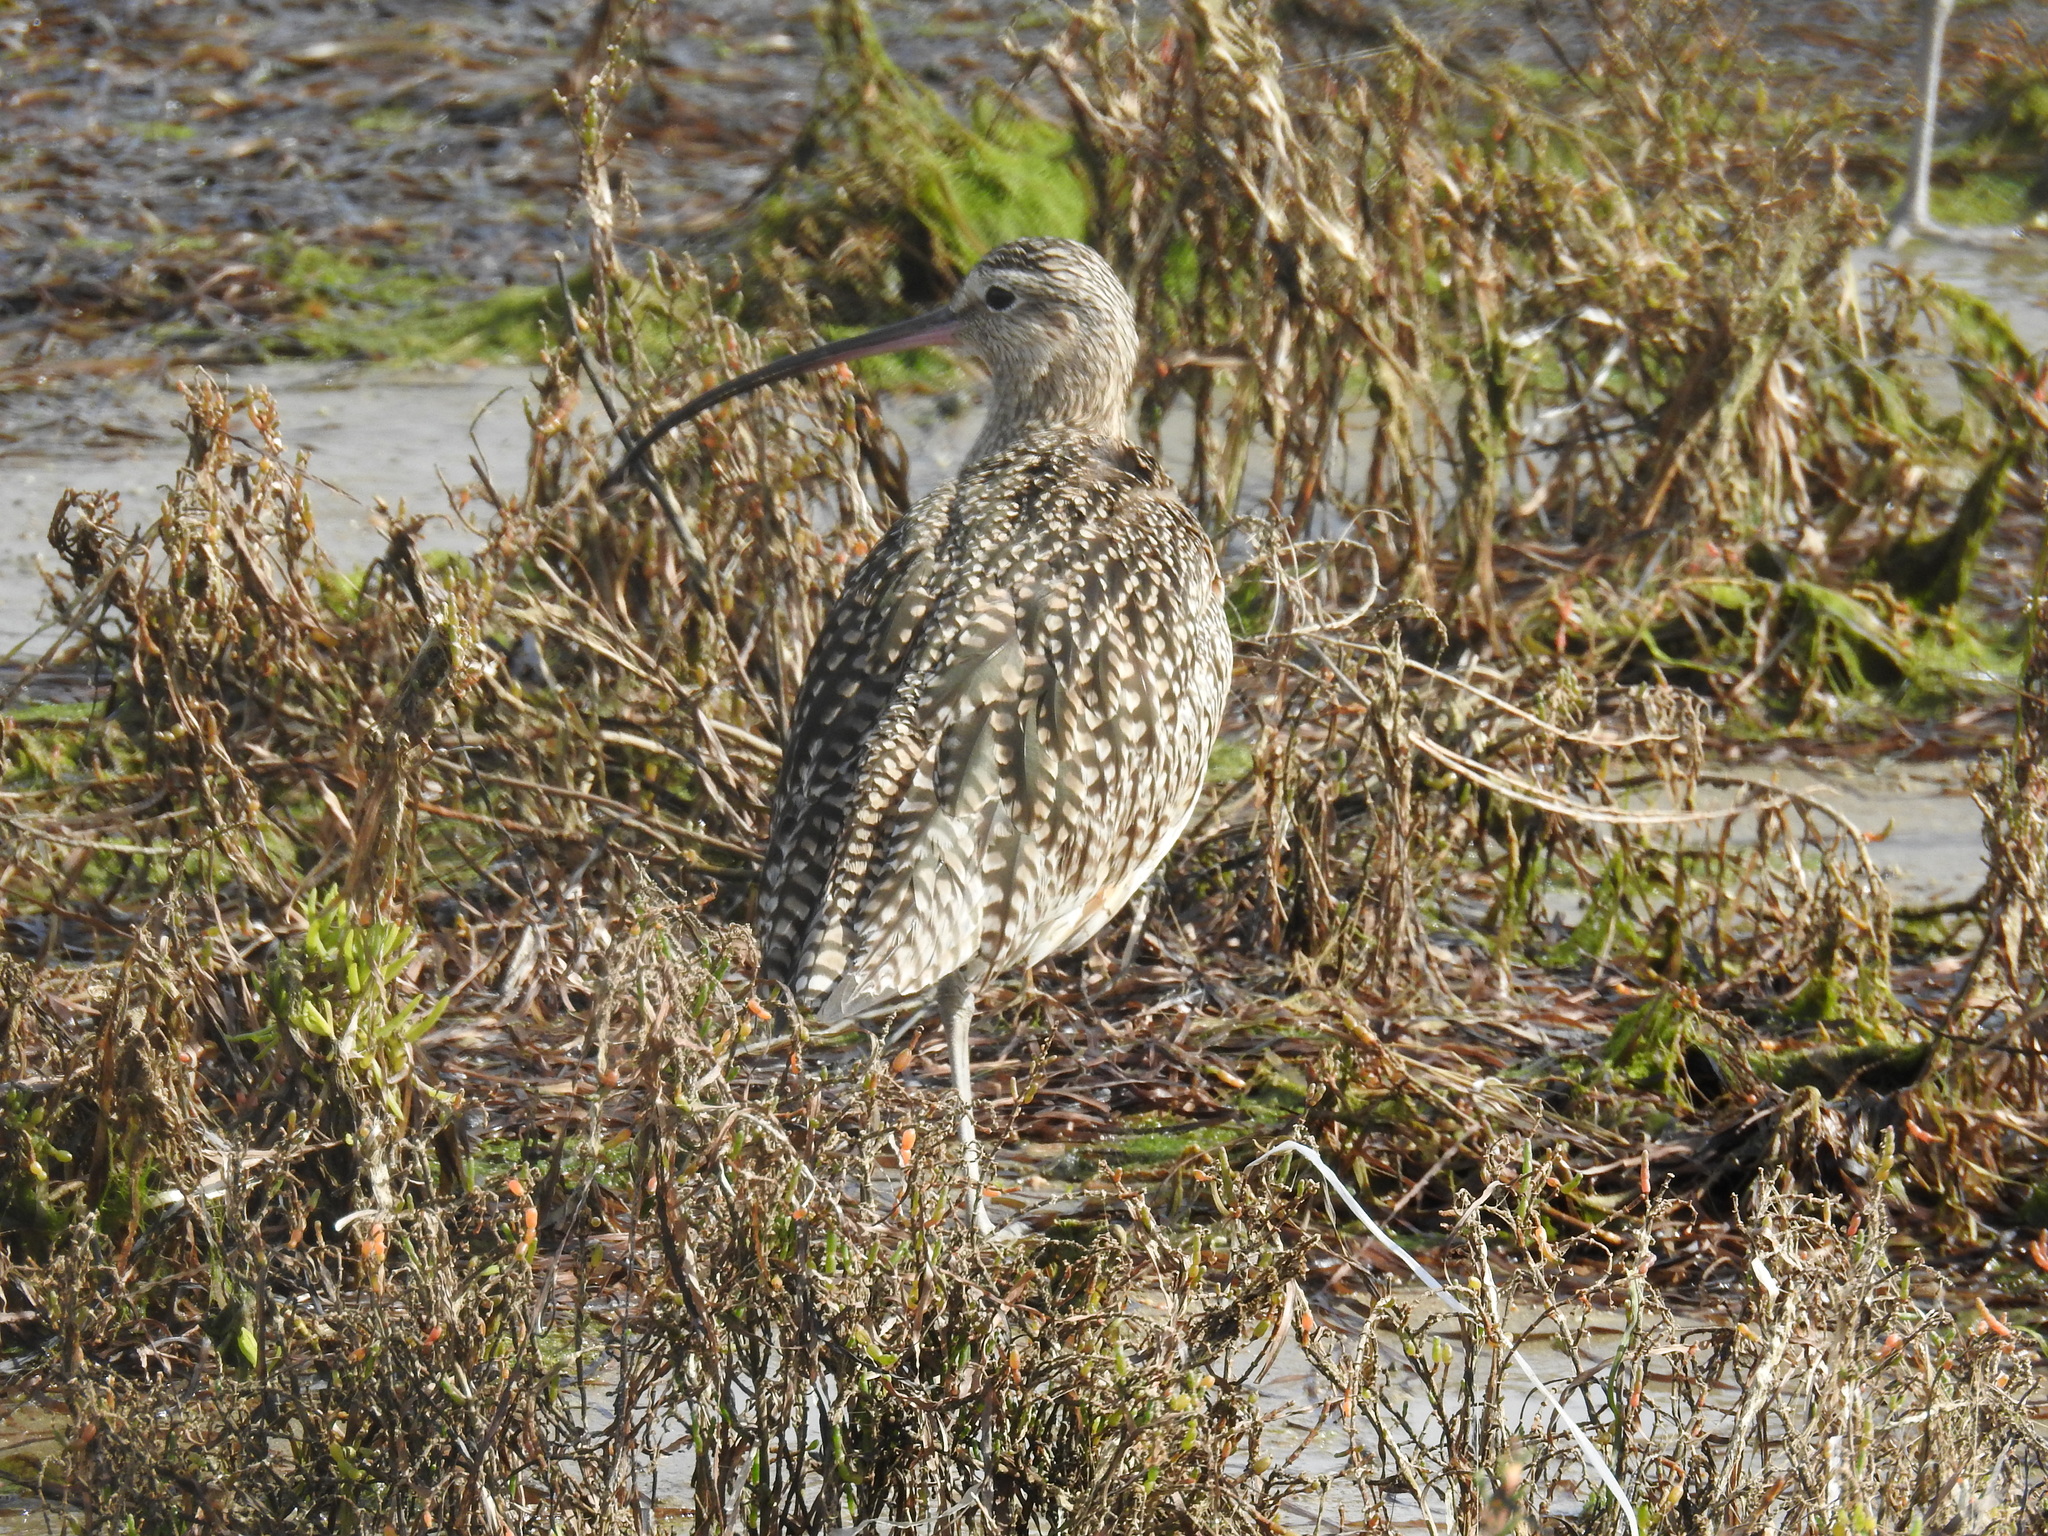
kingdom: Animalia
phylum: Chordata
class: Aves
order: Charadriiformes
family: Scolopacidae
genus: Numenius
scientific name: Numenius americanus
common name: Long-billed curlew
